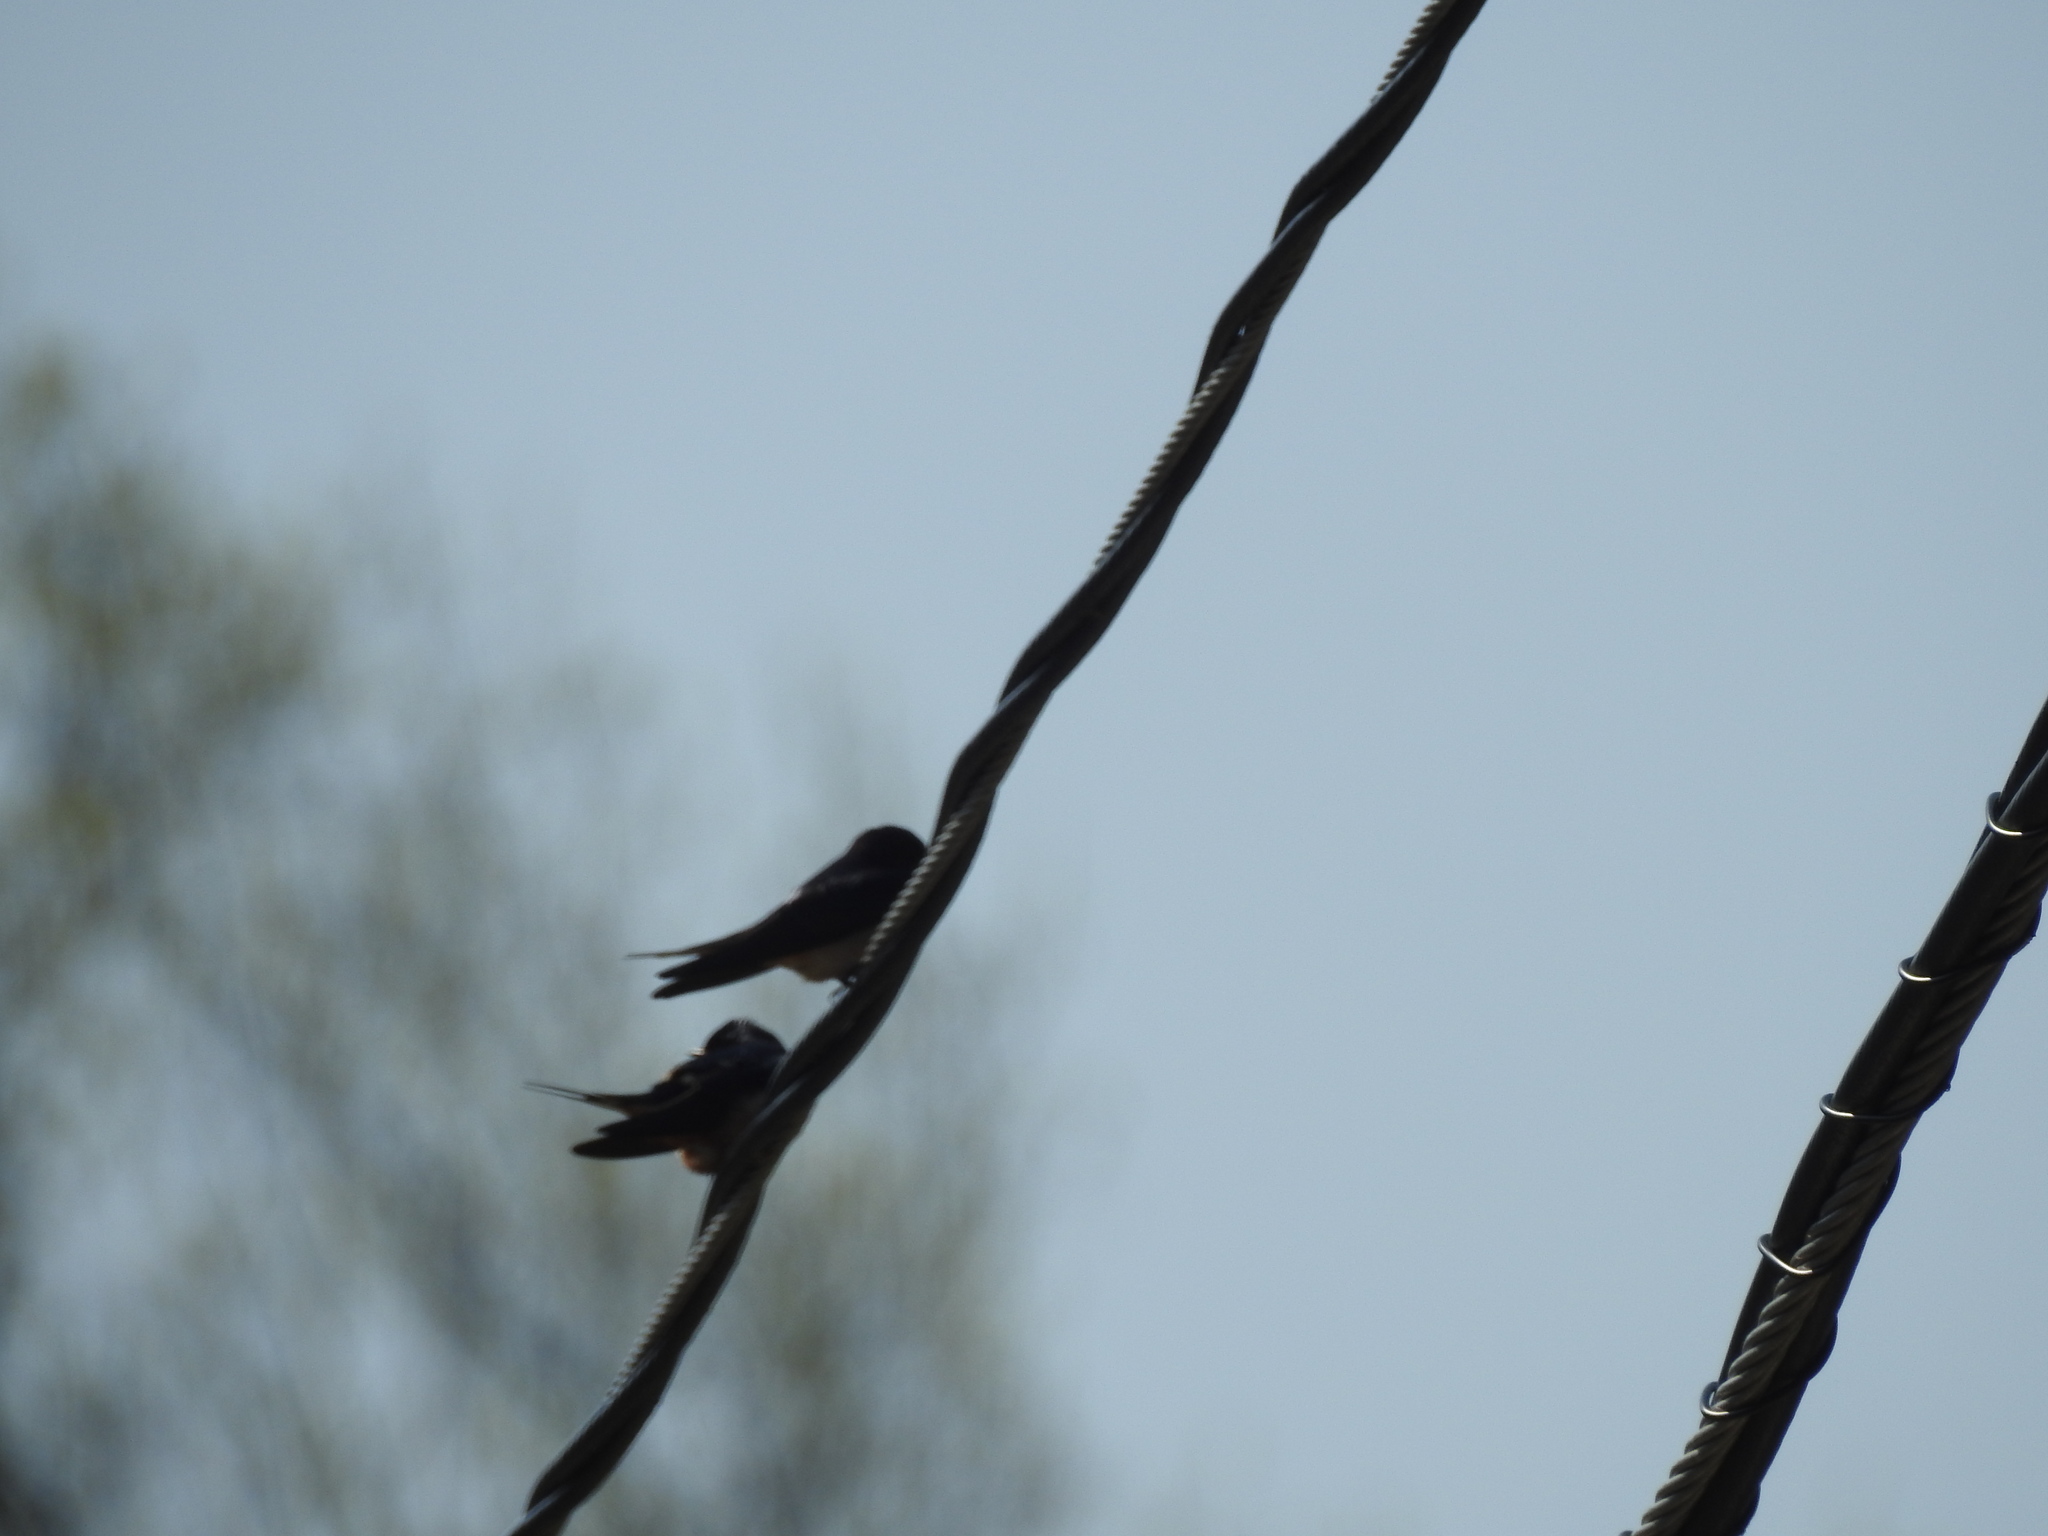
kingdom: Animalia
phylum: Chordata
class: Aves
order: Passeriformes
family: Hirundinidae
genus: Hirundo
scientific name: Hirundo rustica
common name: Barn swallow
